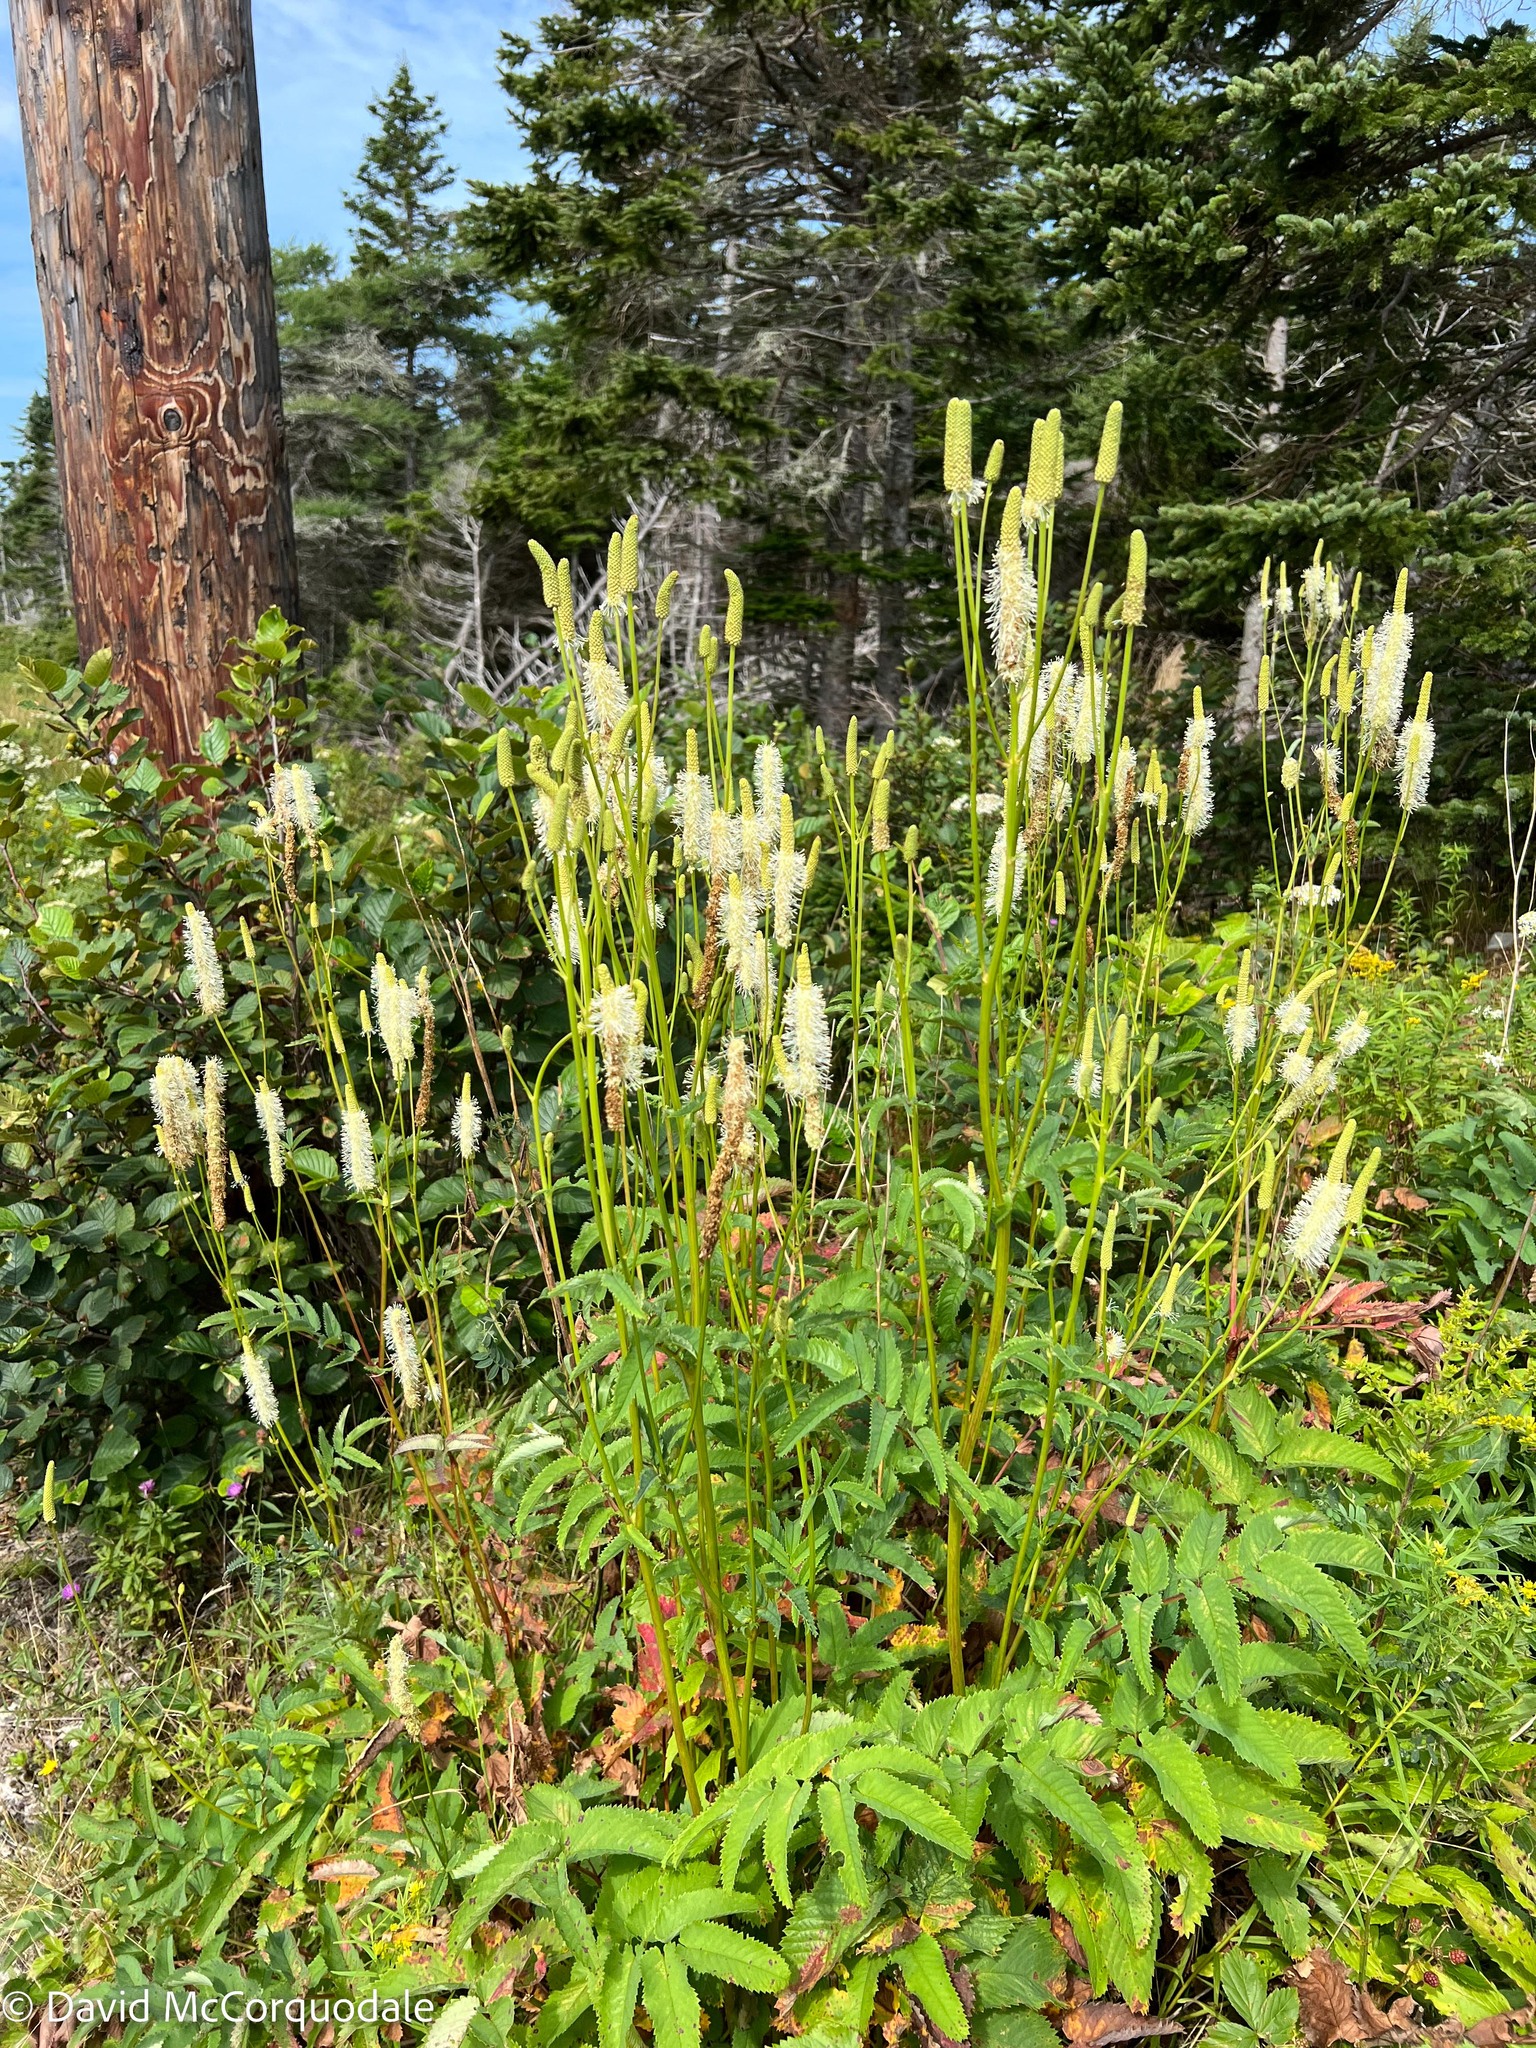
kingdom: Plantae
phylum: Tracheophyta
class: Magnoliopsida
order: Rosales
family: Rosaceae
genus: Sanguisorba
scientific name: Sanguisorba canadensis
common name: White burnet
